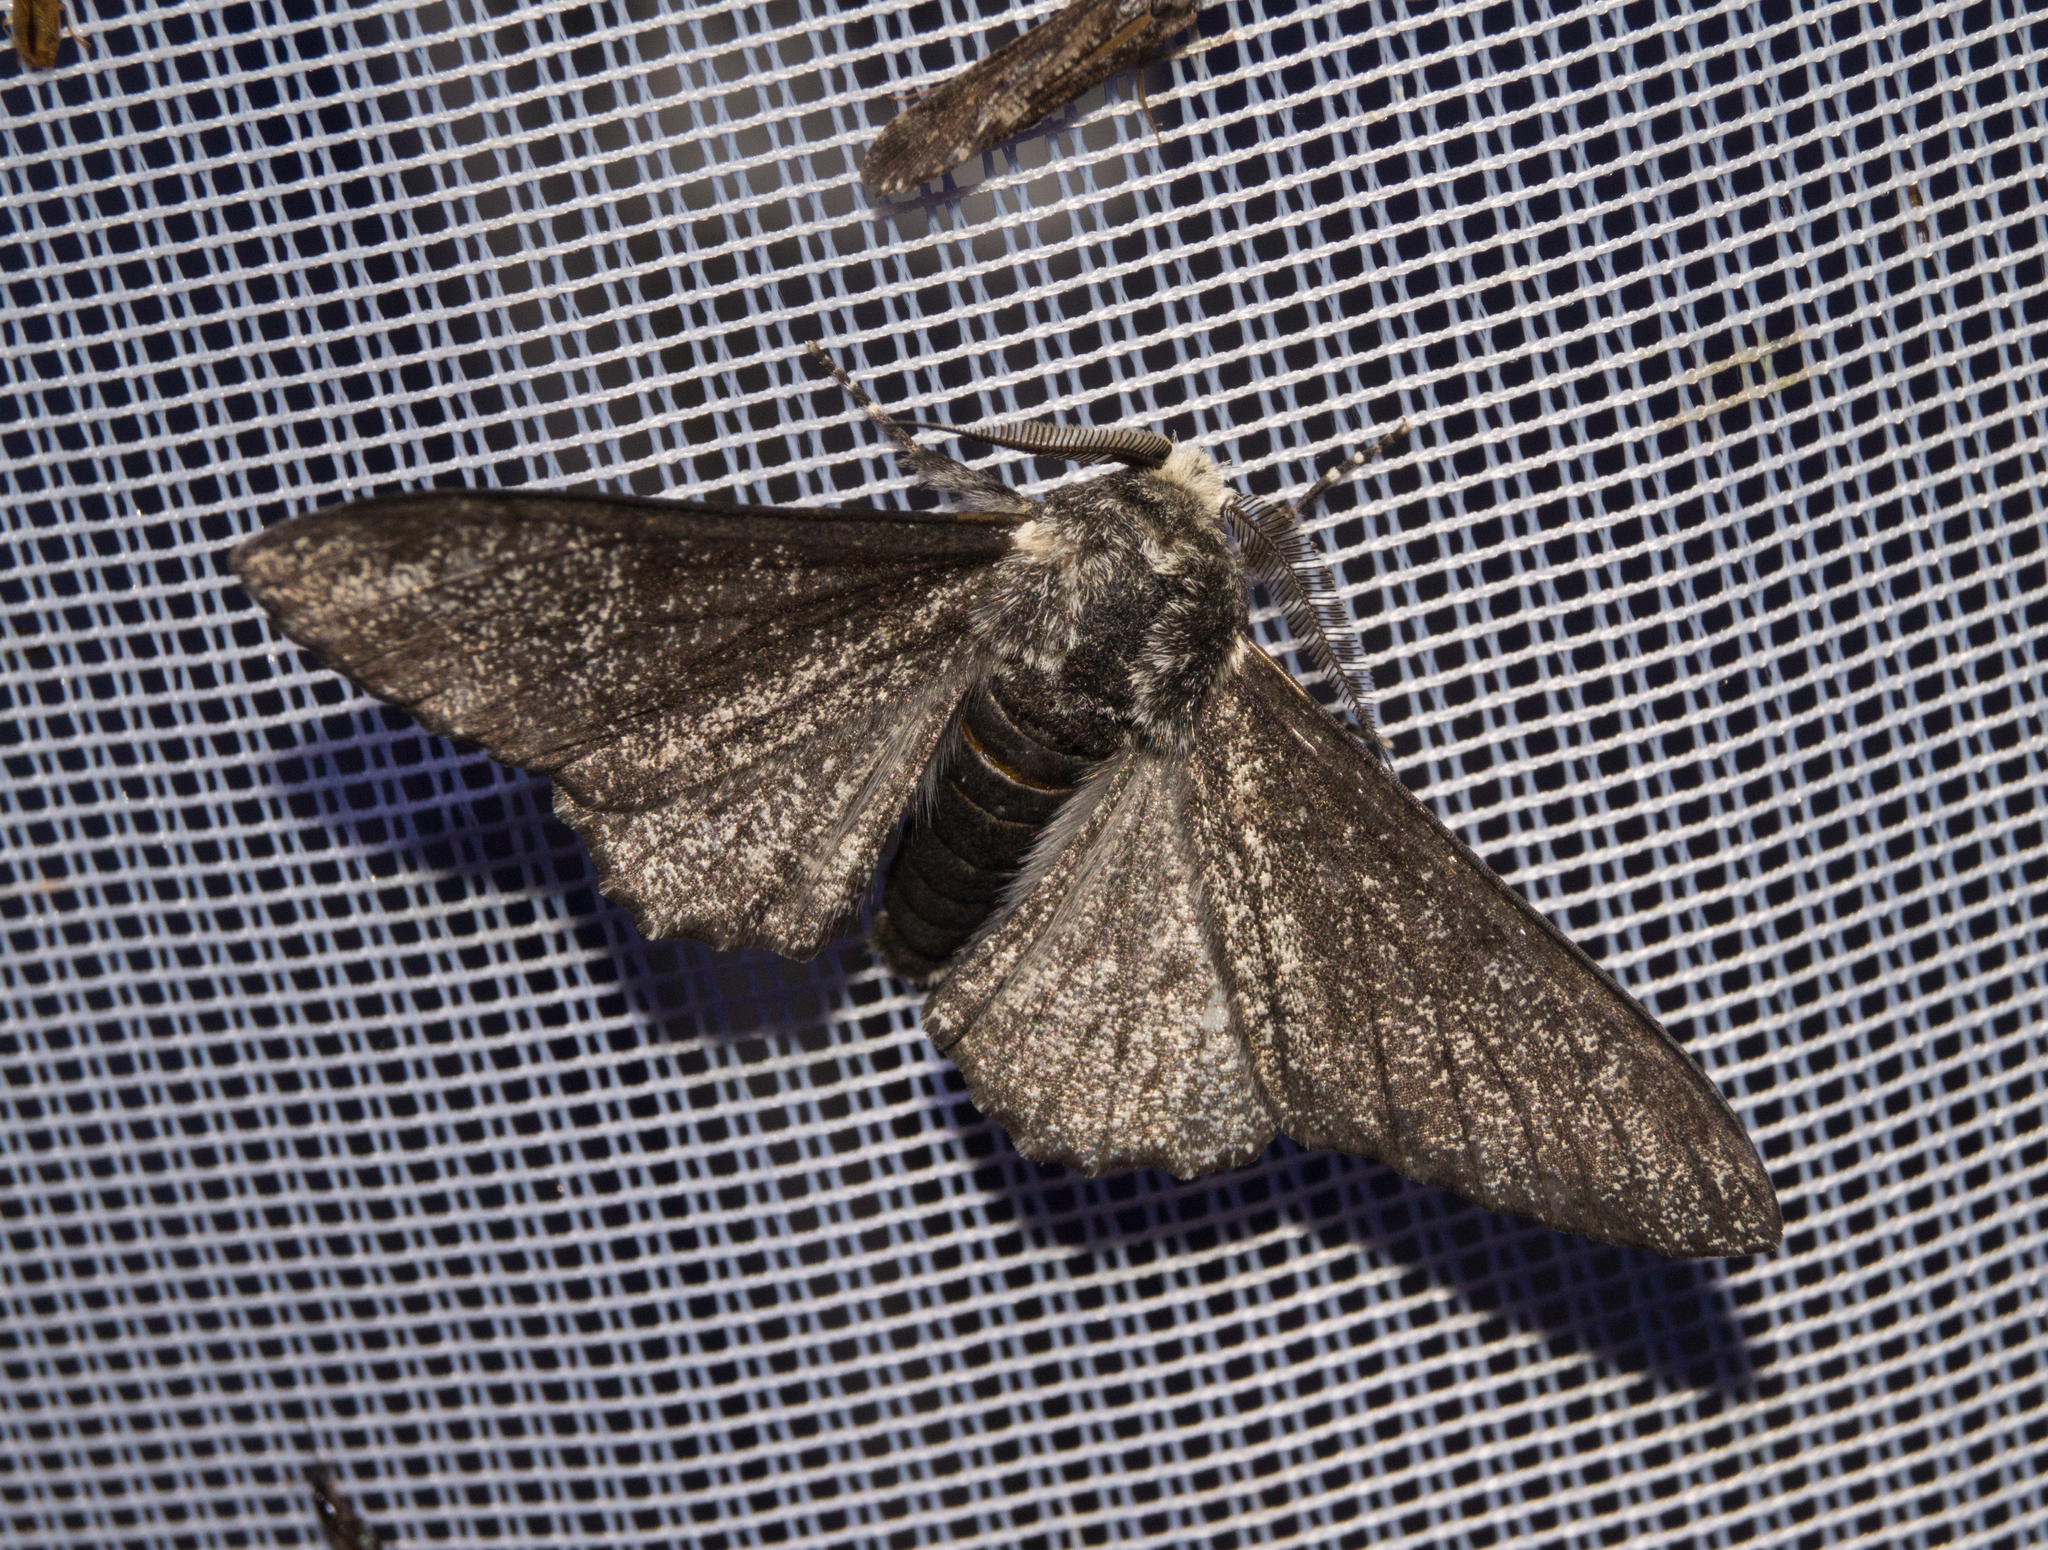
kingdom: Animalia
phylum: Arthropoda
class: Insecta
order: Lepidoptera
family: Geometridae
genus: Biston
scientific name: Biston betularia
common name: Peppered moth
